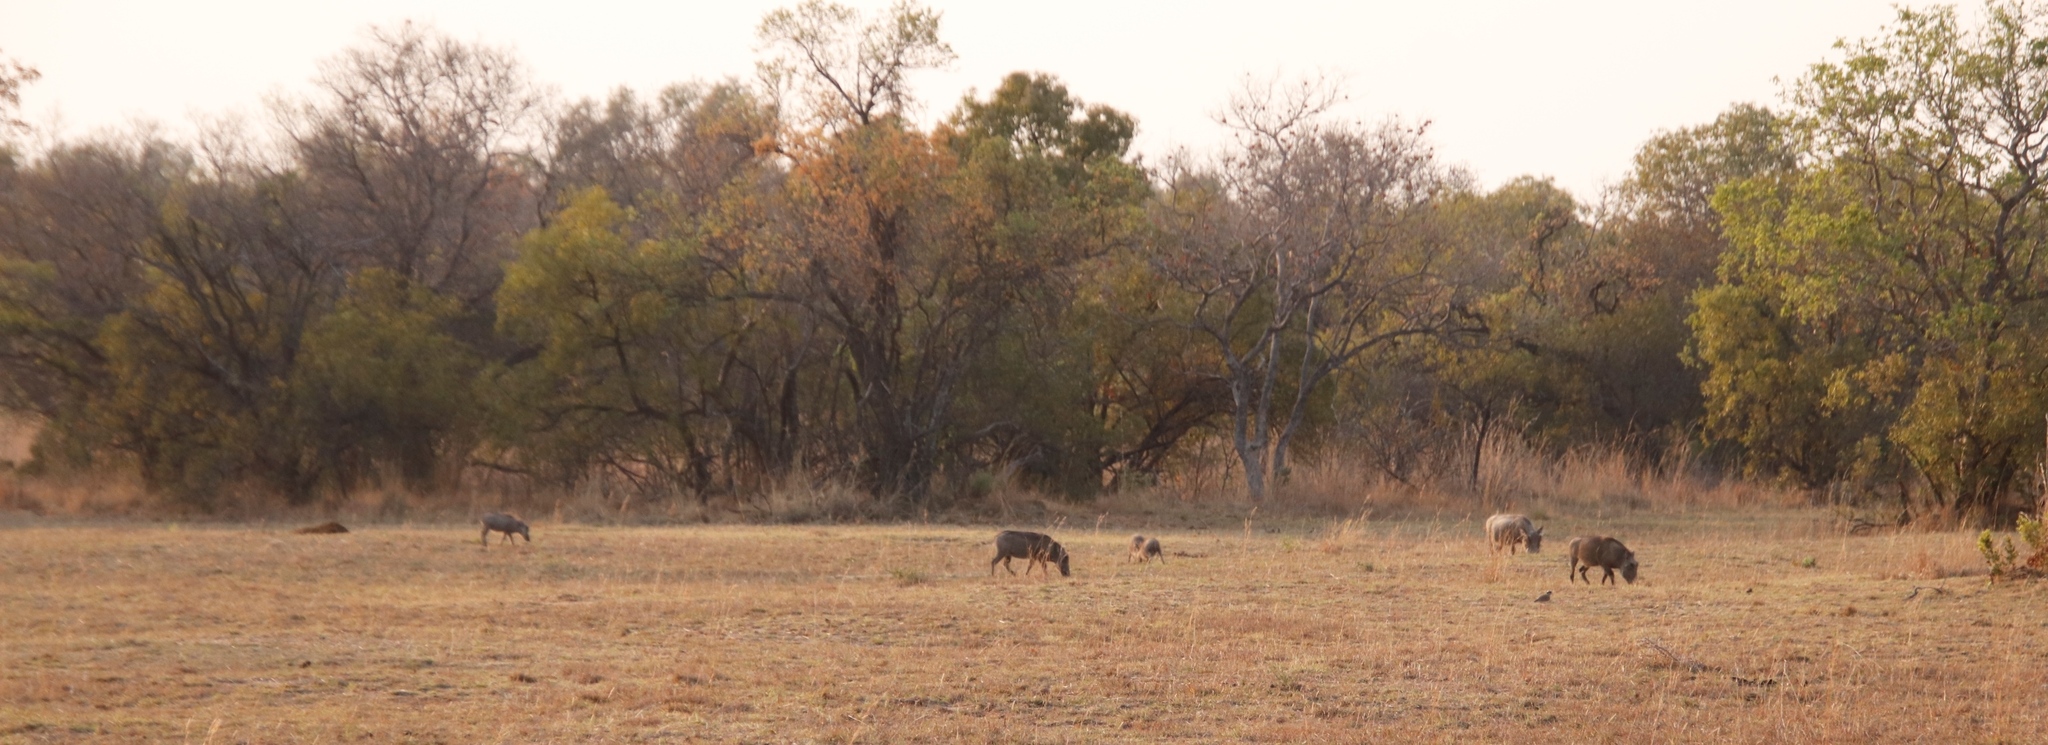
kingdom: Animalia
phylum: Chordata
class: Mammalia
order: Artiodactyla
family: Suidae
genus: Phacochoerus
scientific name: Phacochoerus africanus
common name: Common warthog
